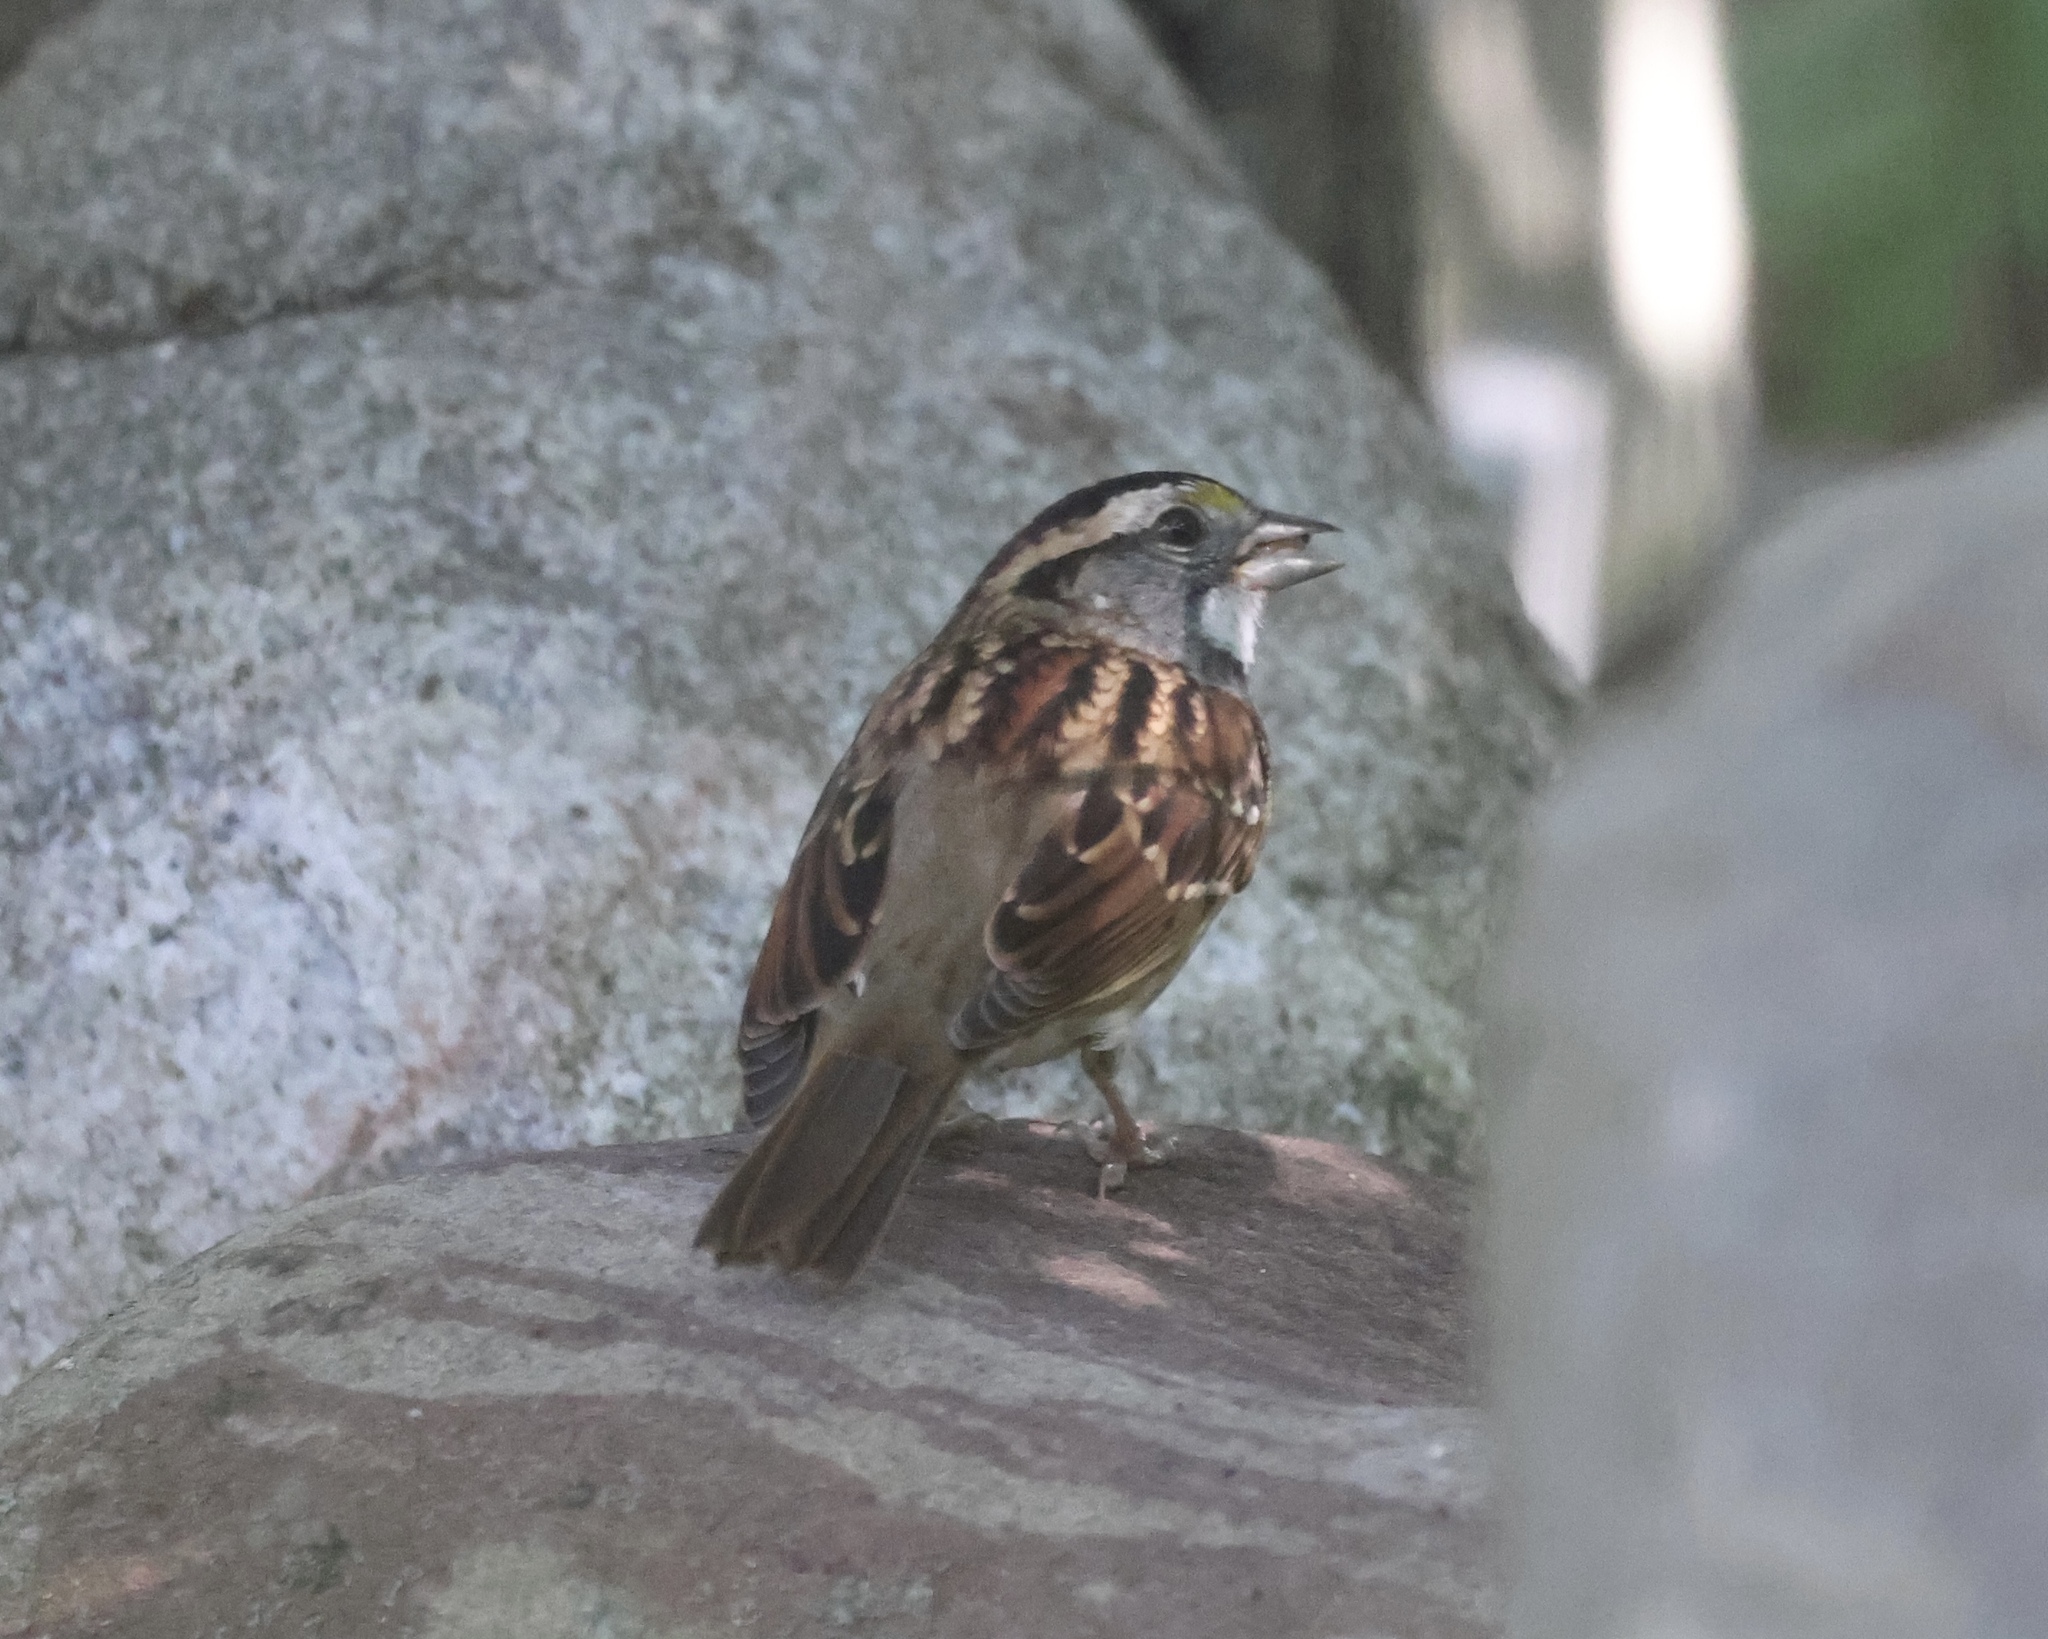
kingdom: Animalia
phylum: Chordata
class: Aves
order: Passeriformes
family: Passerellidae
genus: Zonotrichia
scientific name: Zonotrichia albicollis
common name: White-throated sparrow
